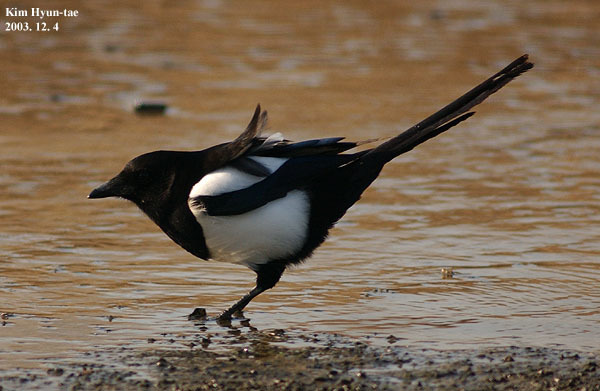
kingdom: Animalia
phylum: Chordata
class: Aves
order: Passeriformes
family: Corvidae
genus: Pica
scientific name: Pica serica
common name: Oriental magpie
